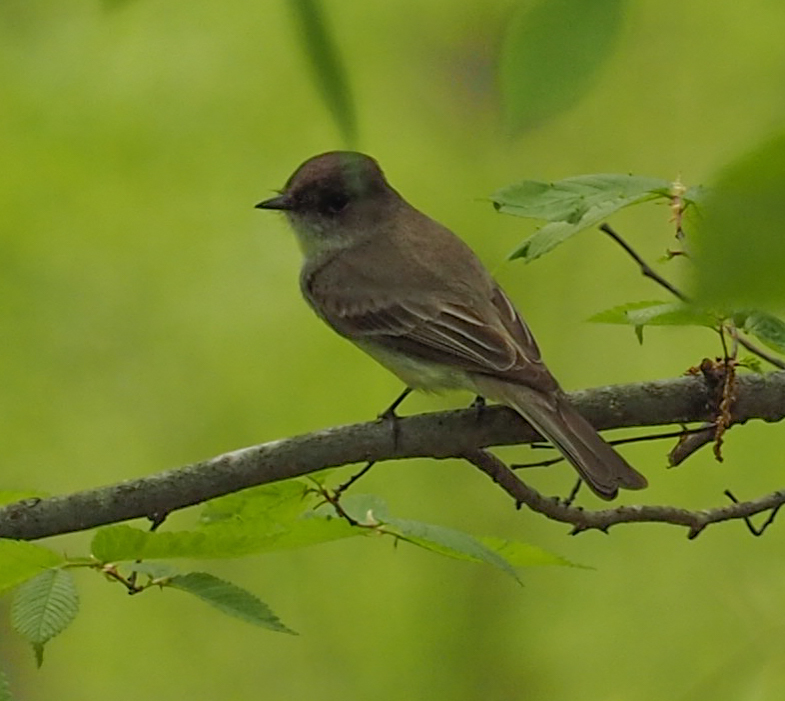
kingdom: Animalia
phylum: Chordata
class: Aves
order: Passeriformes
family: Tyrannidae
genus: Sayornis
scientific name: Sayornis phoebe
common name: Eastern phoebe
